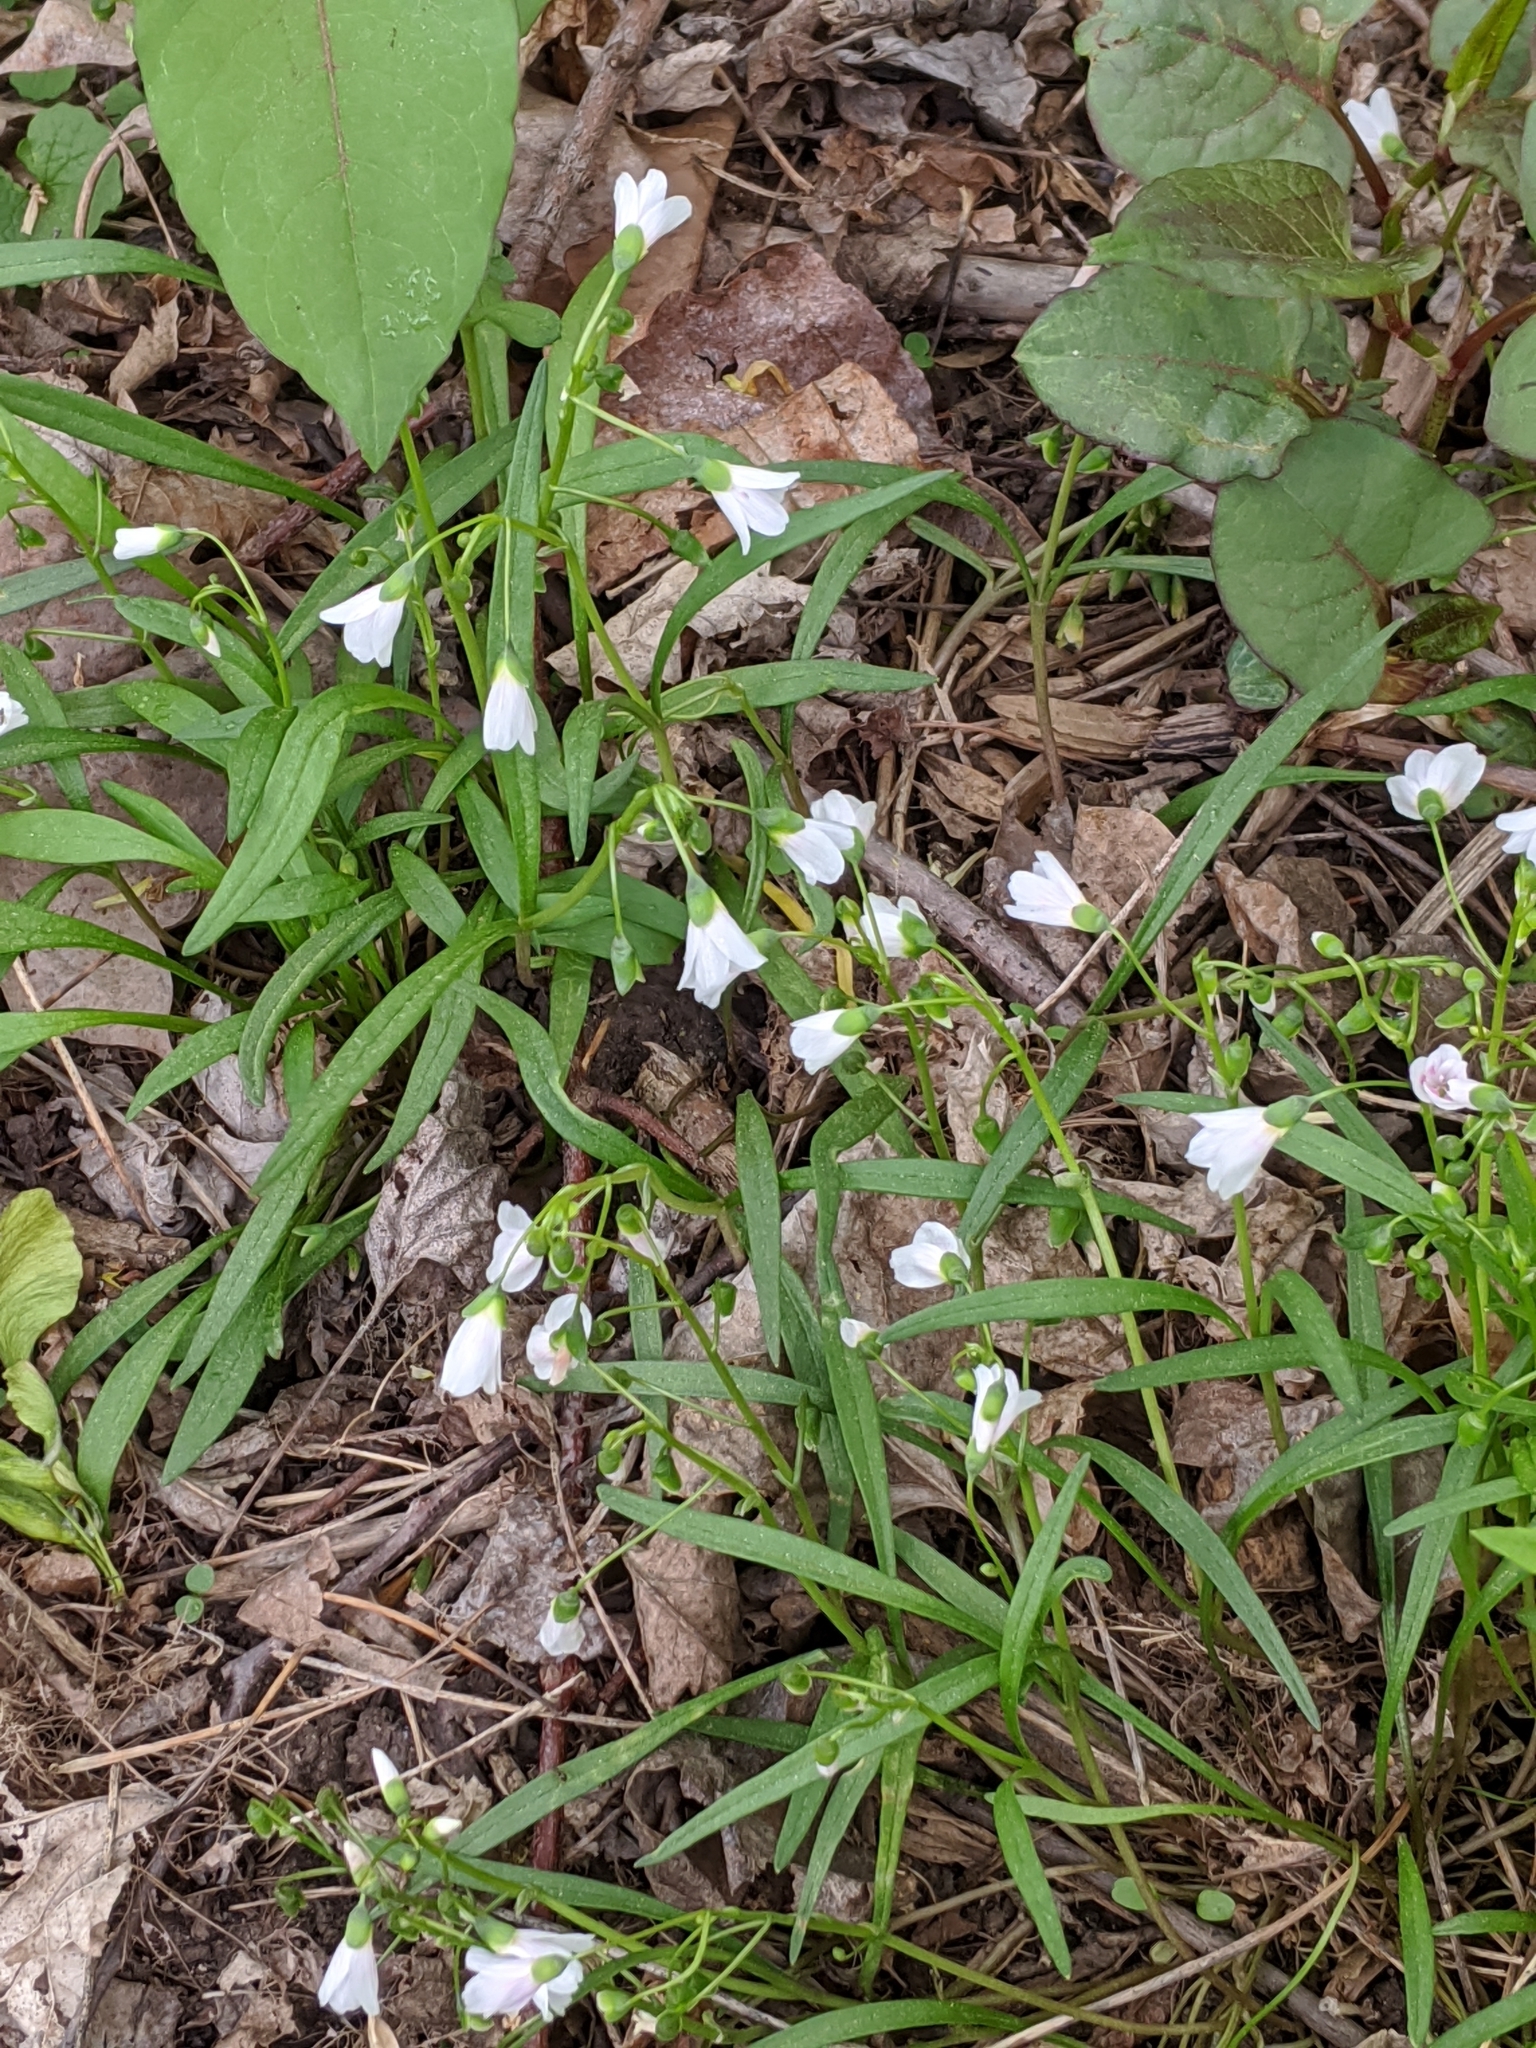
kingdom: Plantae
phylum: Tracheophyta
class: Magnoliopsida
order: Caryophyllales
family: Montiaceae
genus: Claytonia
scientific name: Claytonia virginica
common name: Virginia springbeauty
